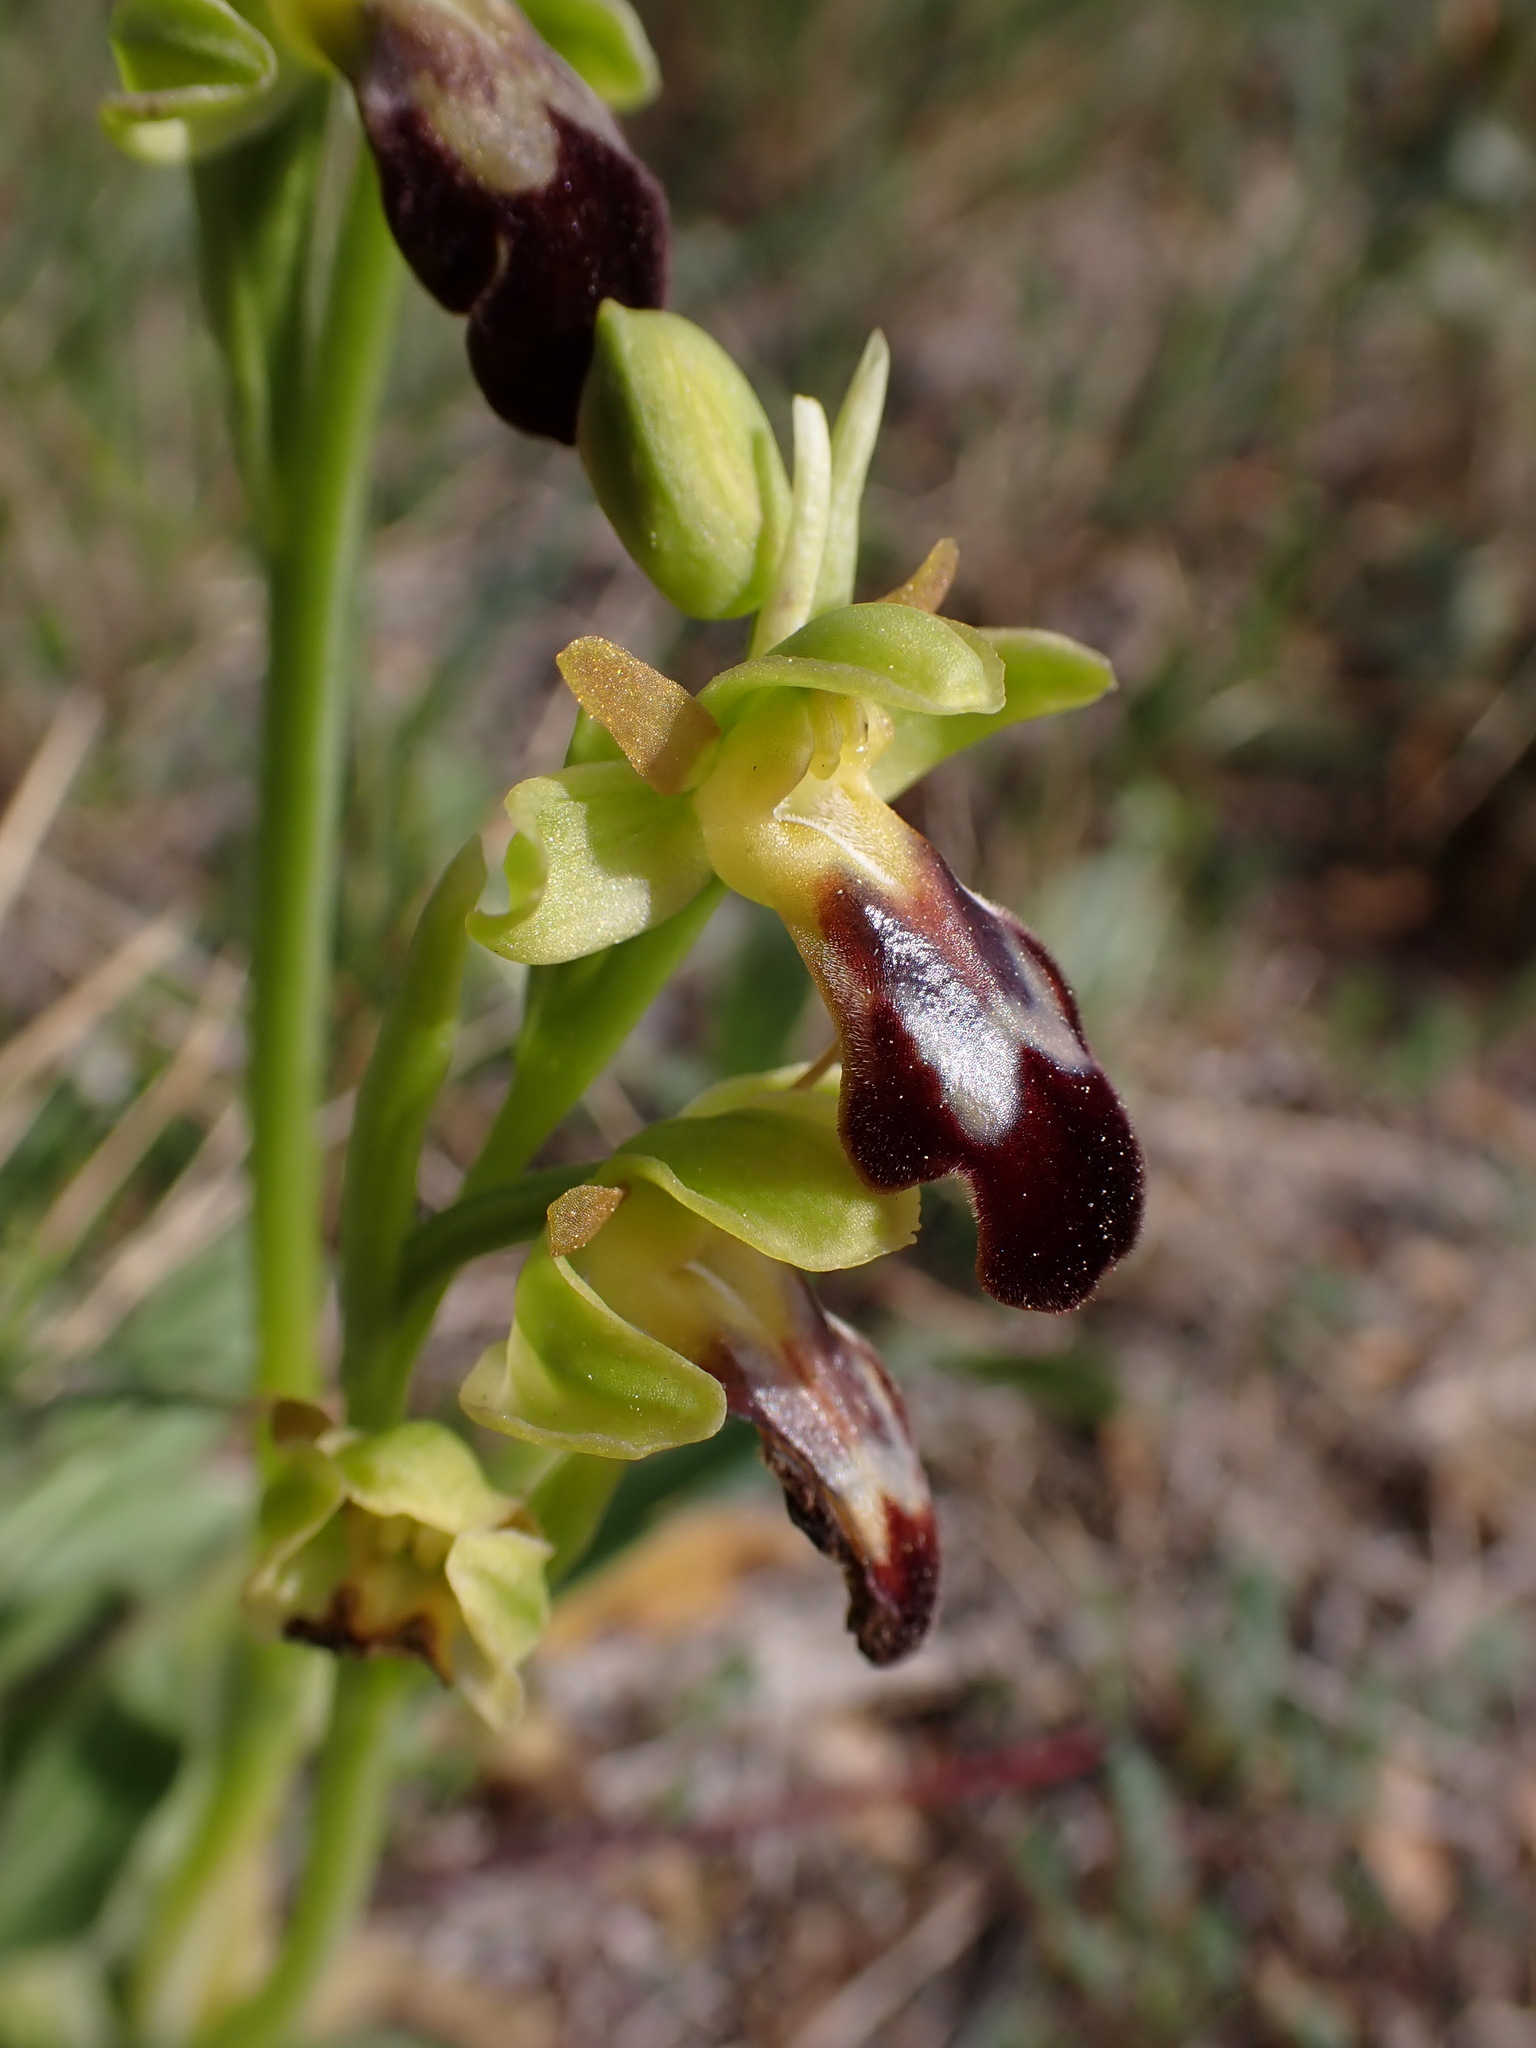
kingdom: Plantae
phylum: Tracheophyta
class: Liliopsida
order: Asparagales
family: Orchidaceae
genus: Ophrys
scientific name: Ophrys fusca
